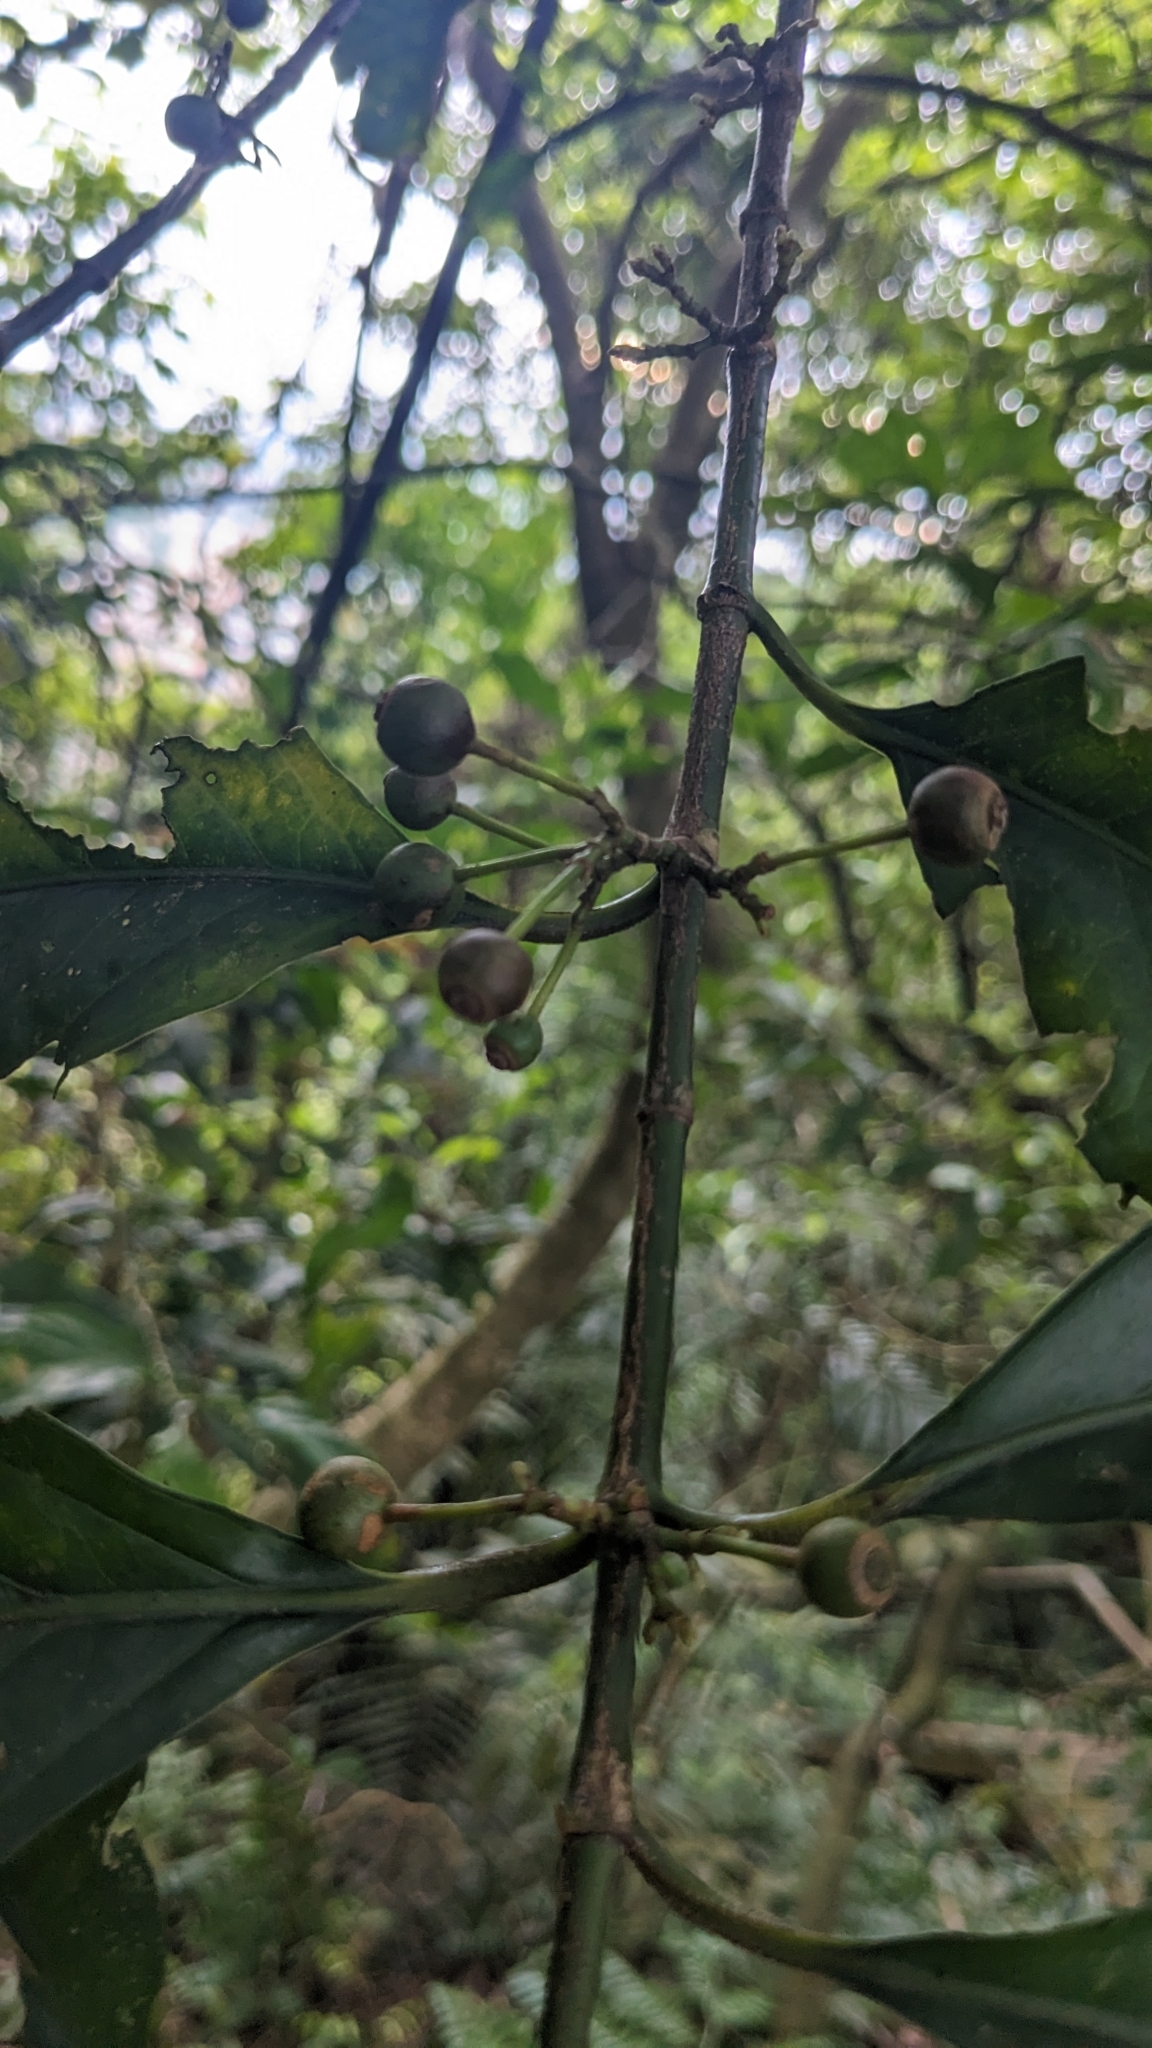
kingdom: Plantae
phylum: Tracheophyta
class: Magnoliopsida
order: Gentianales
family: Rubiaceae
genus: Aidia
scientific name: Aidia canthioides
